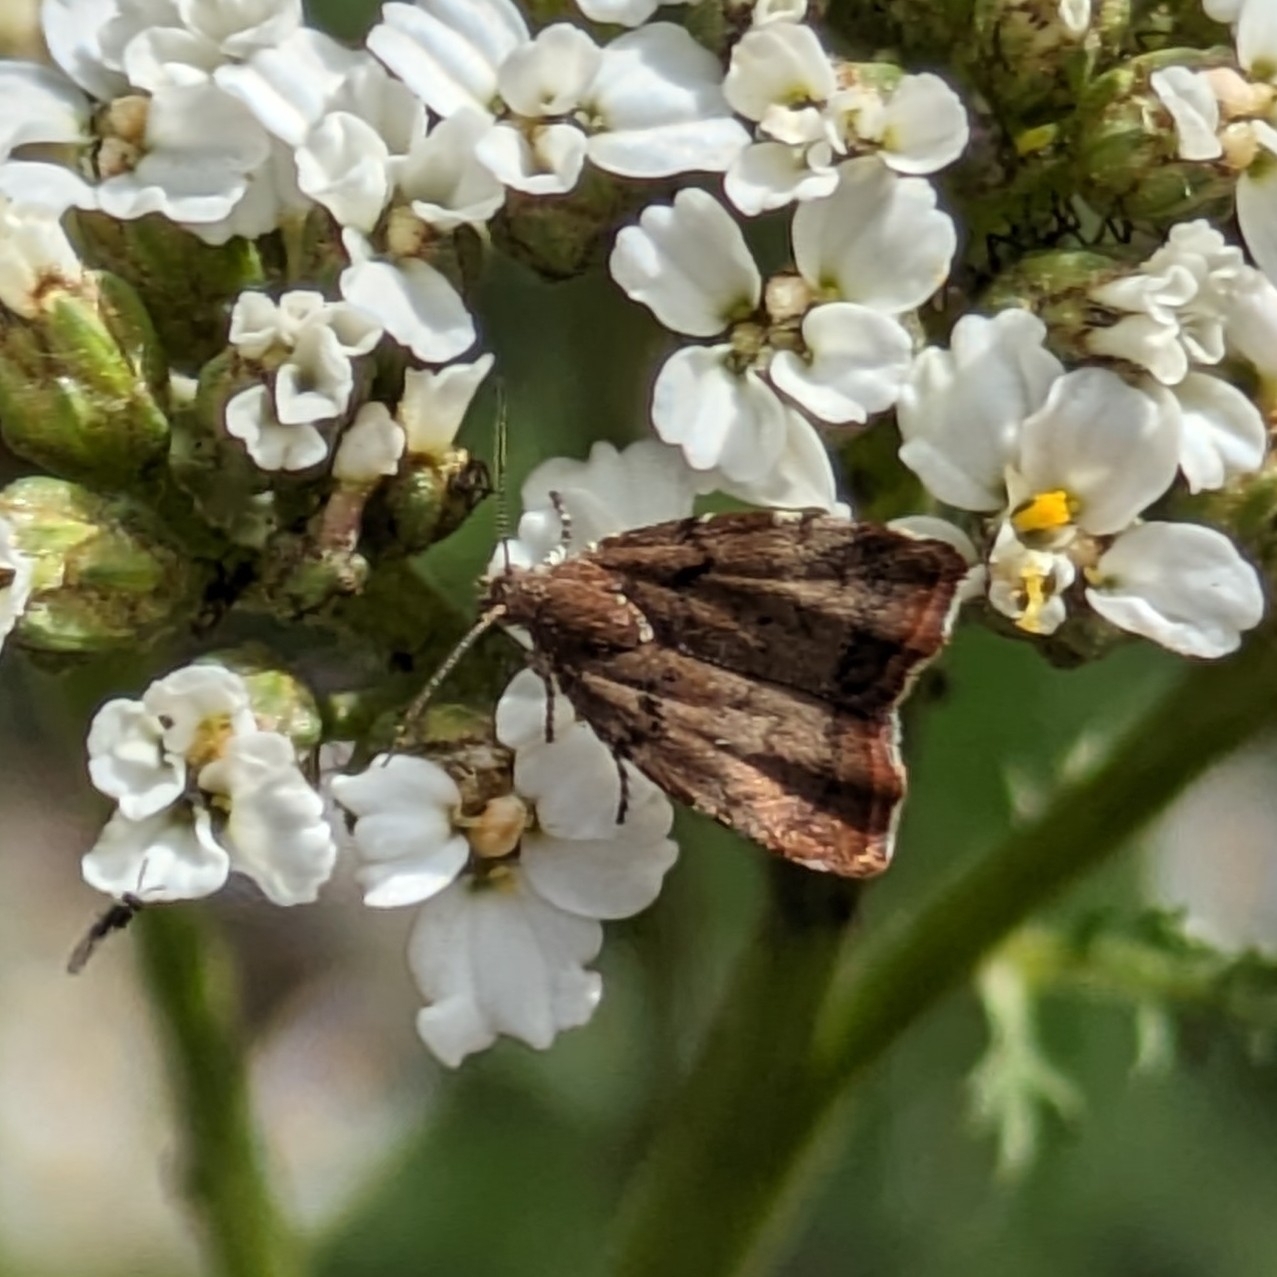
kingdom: Animalia
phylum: Arthropoda
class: Insecta
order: Lepidoptera
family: Choreutidae
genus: Choreutis
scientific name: Choreutis pariana
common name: Apple leaf skeletoniser
